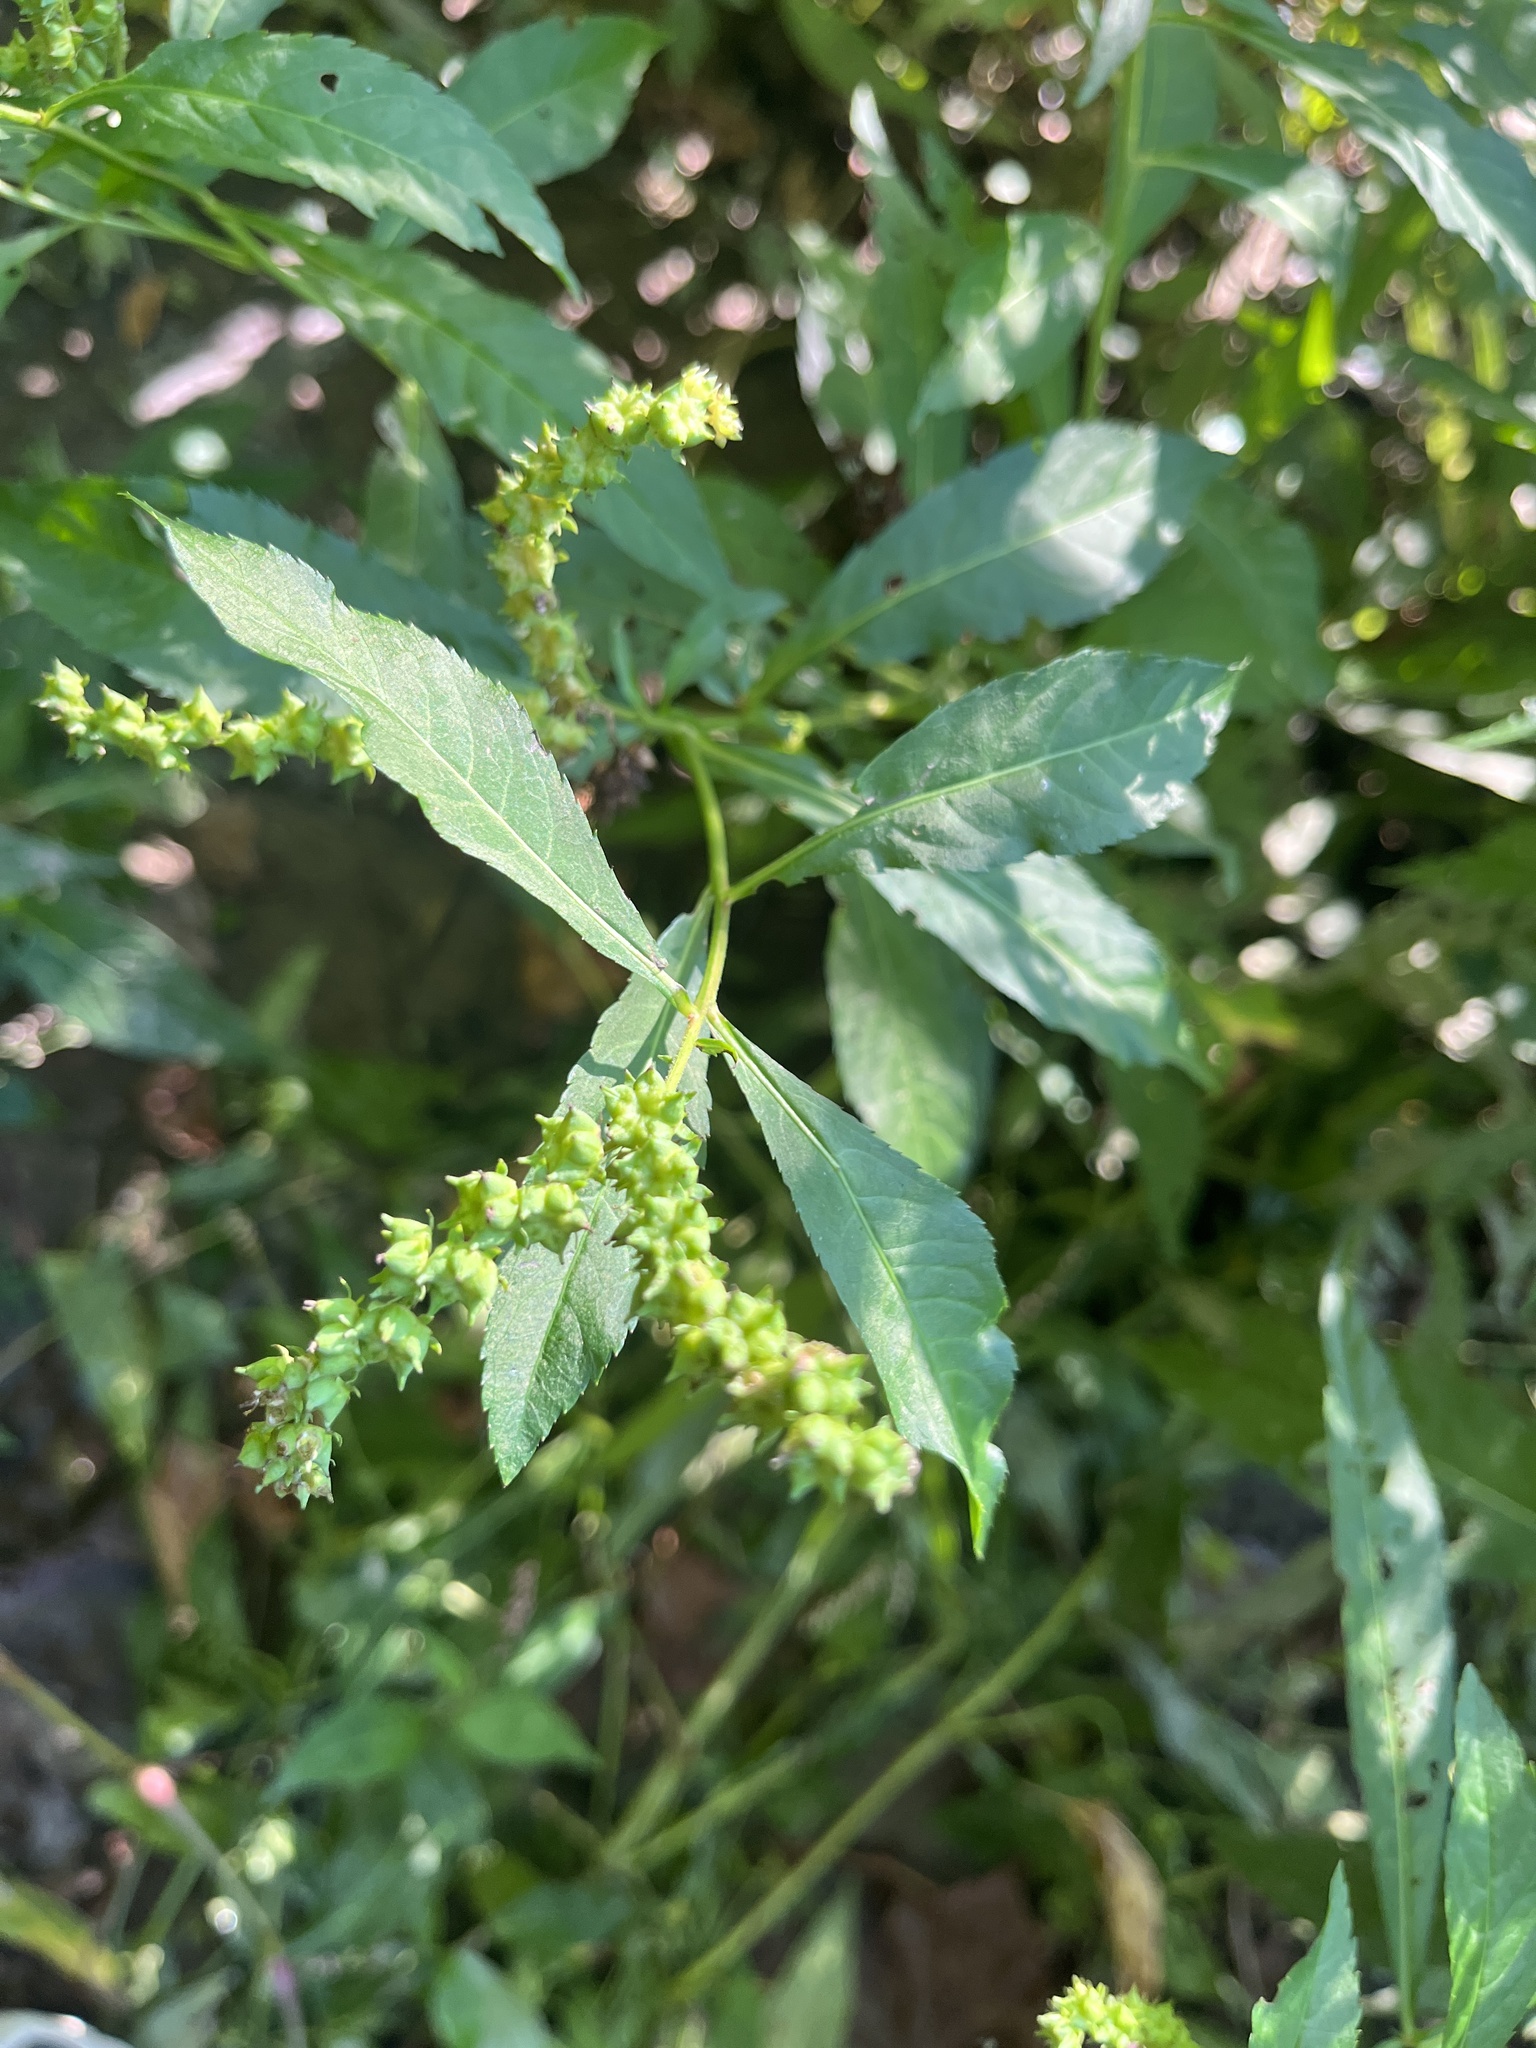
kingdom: Plantae
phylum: Tracheophyta
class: Magnoliopsida
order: Saxifragales
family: Penthoraceae
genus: Penthorum
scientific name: Penthorum sedoides
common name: Ditch stonecrop
